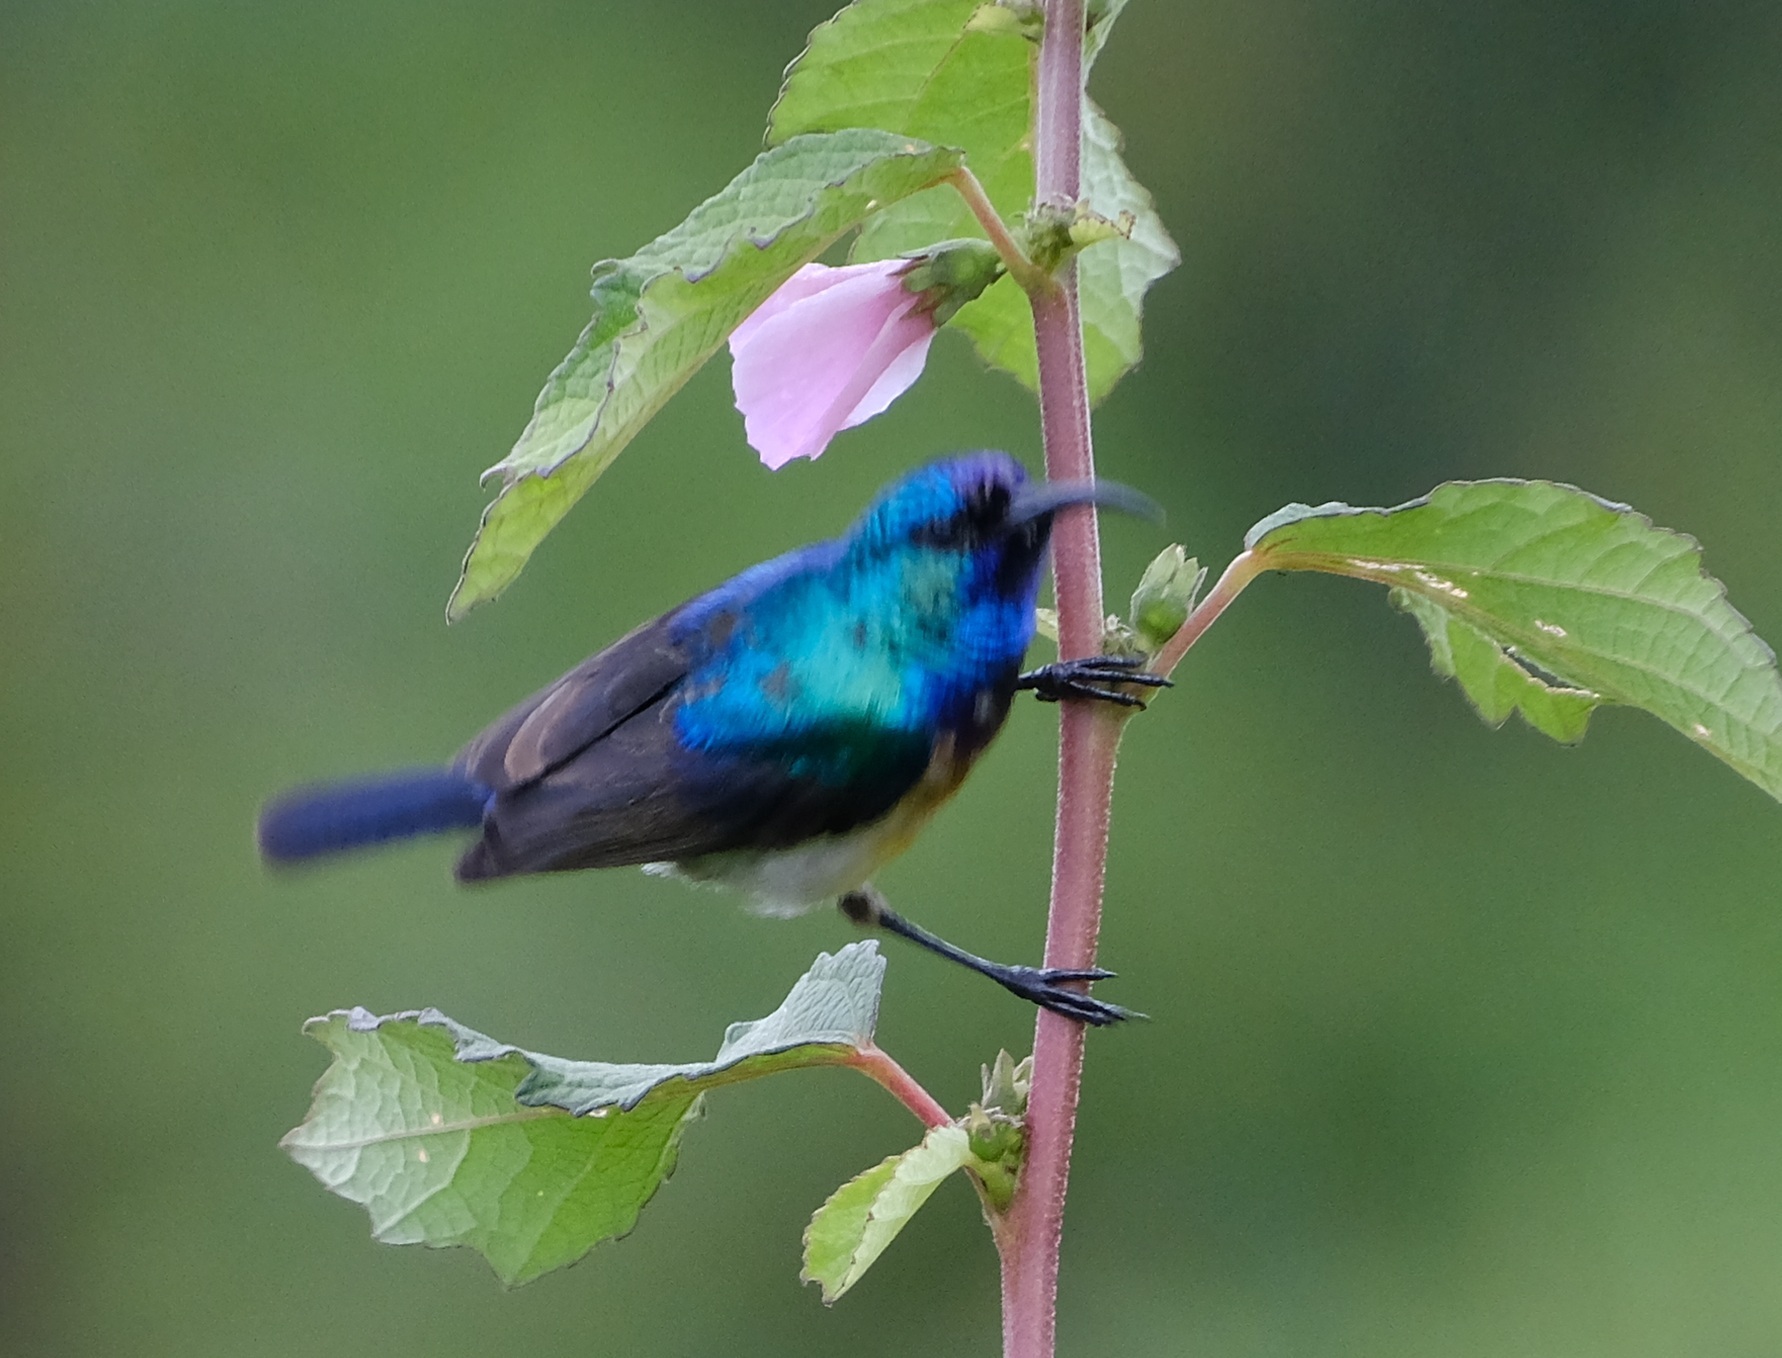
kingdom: Animalia
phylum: Chordata
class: Aves
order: Passeriformes
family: Nectariniidae
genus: Cinnyris
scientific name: Cinnyris venustus
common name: Variable sunbird
